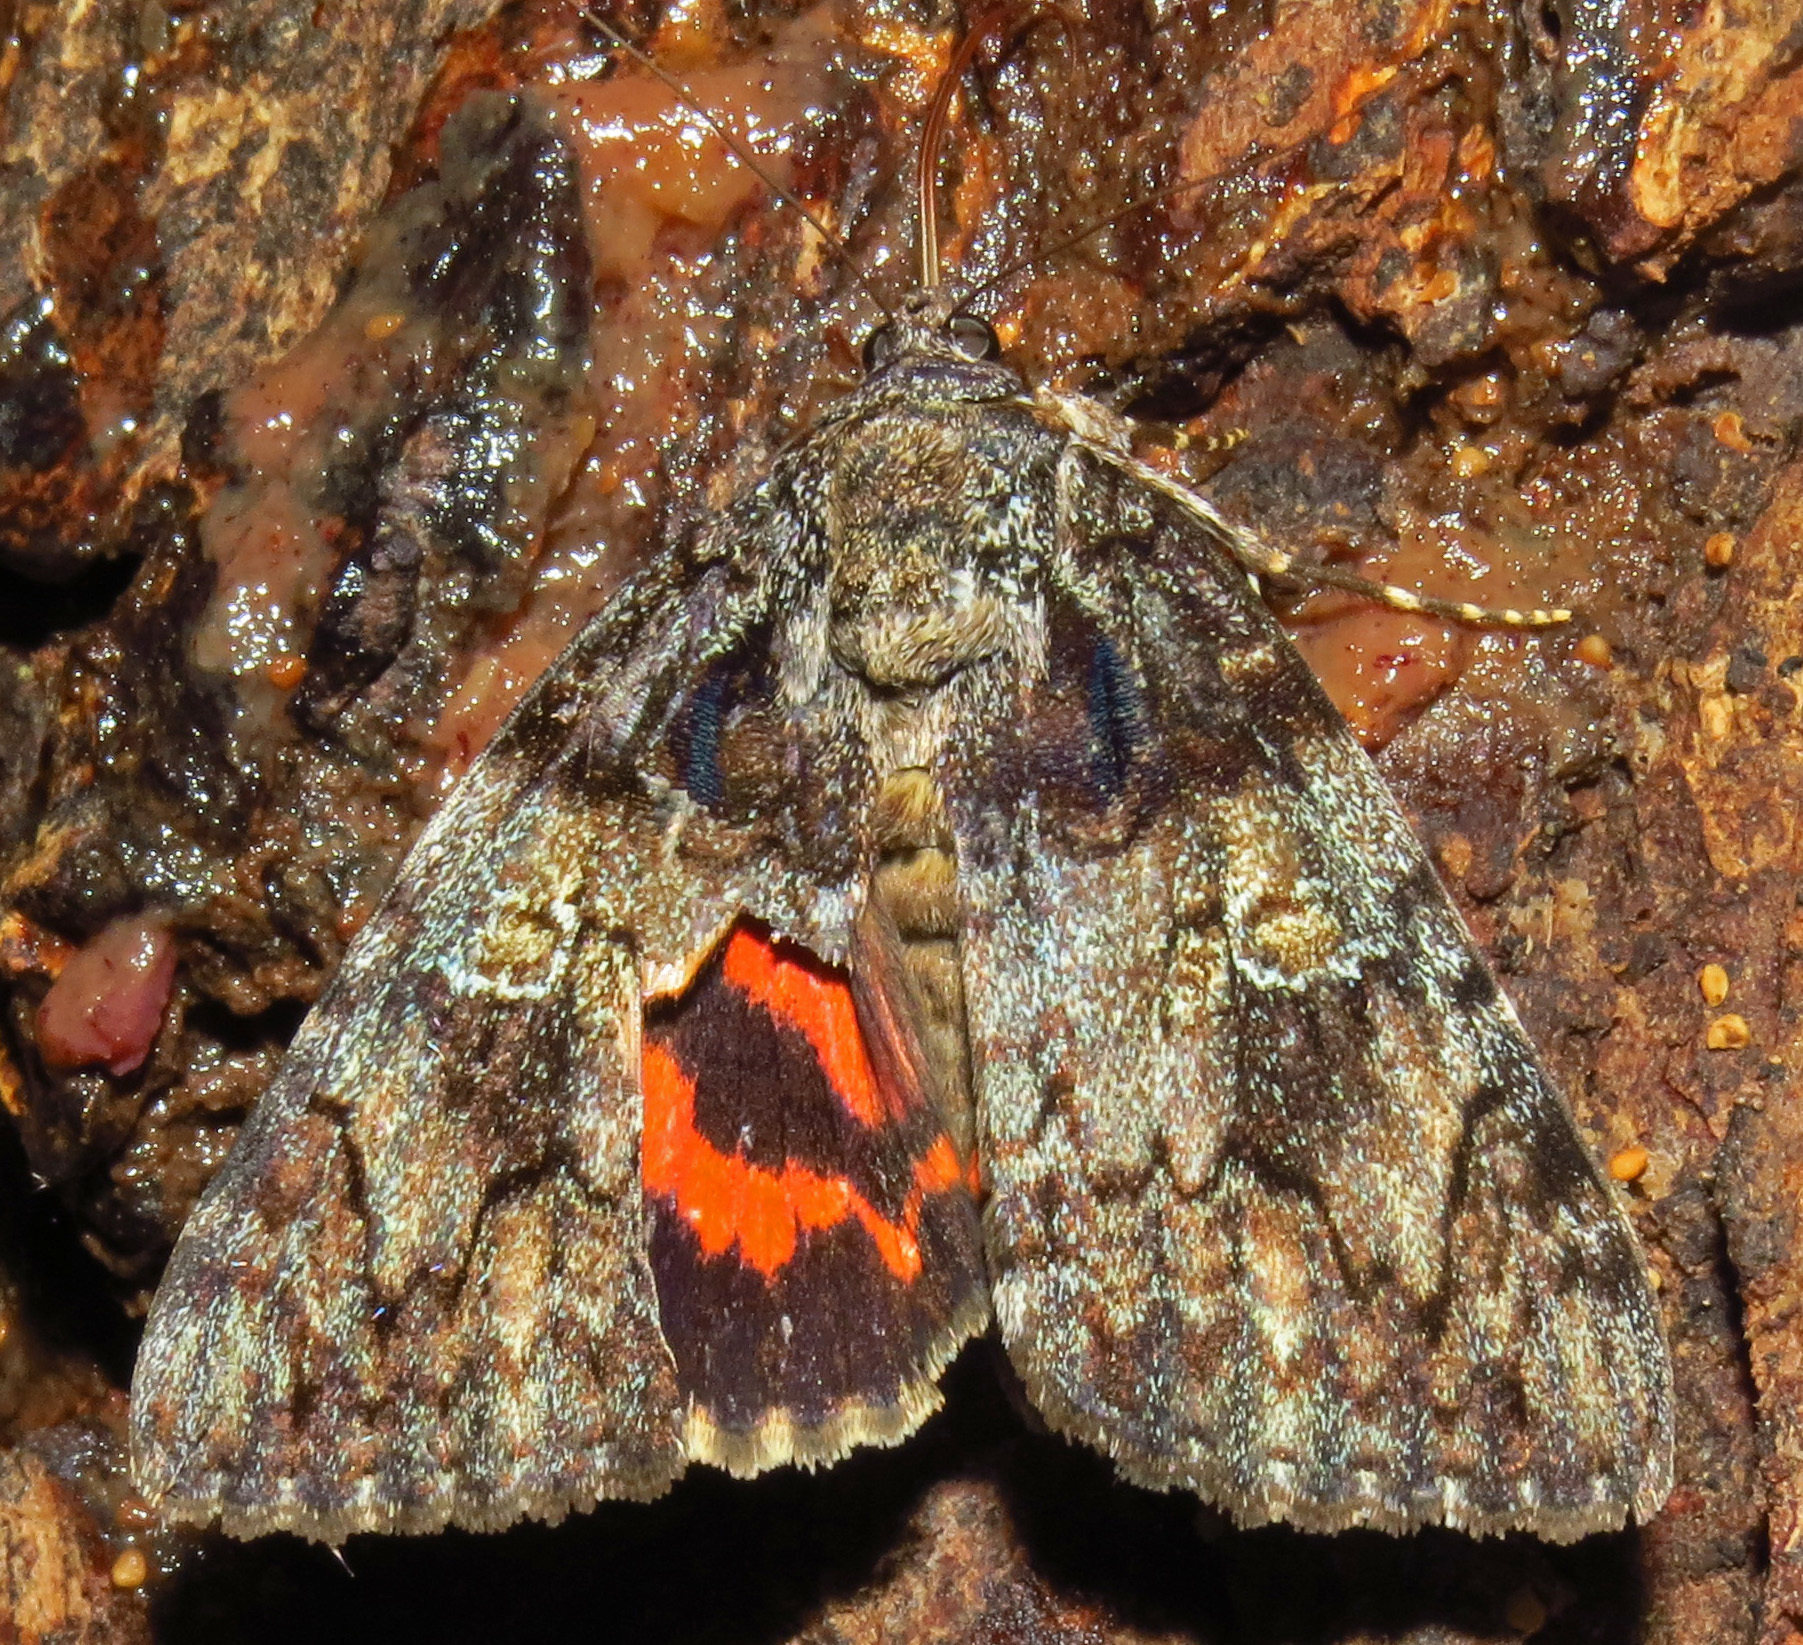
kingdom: Animalia
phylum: Arthropoda
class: Insecta
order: Lepidoptera
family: Erebidae
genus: Catocala
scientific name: Catocala ilia
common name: Ilia underwing
